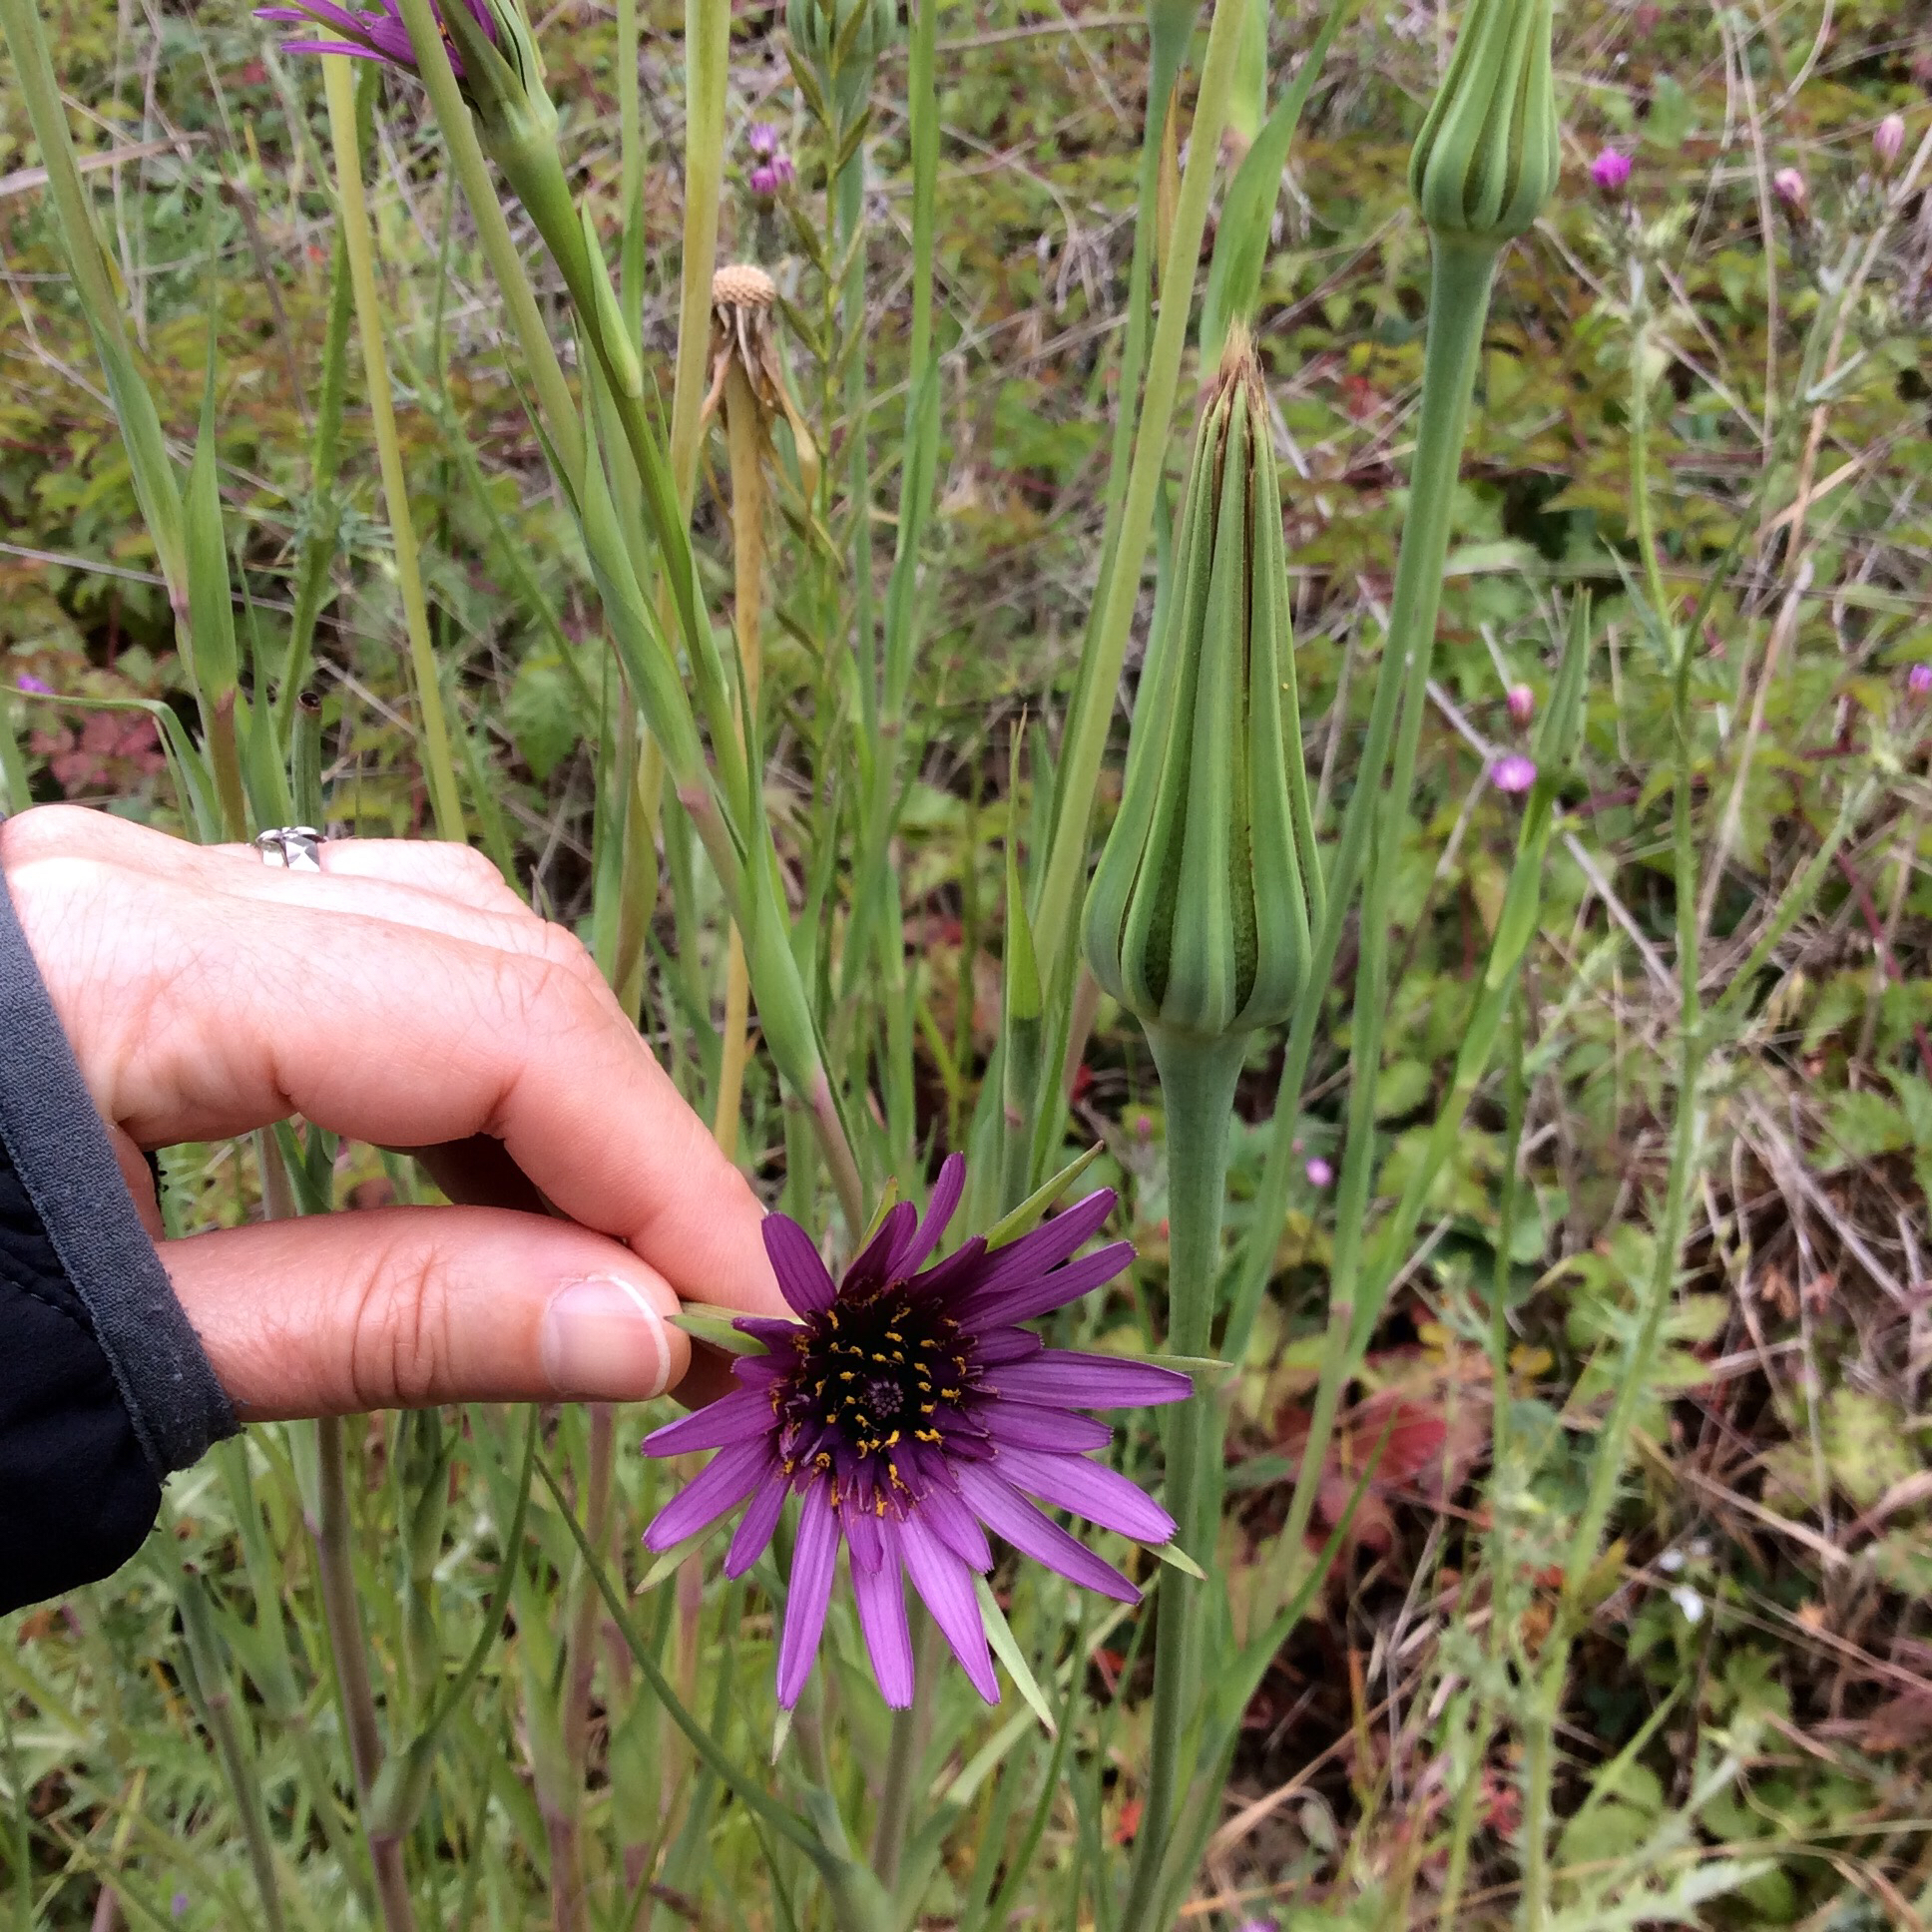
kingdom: Plantae
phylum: Tracheophyta
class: Magnoliopsida
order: Asterales
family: Asteraceae
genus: Tragopogon
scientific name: Tragopogon porrifolius
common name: Salsify
